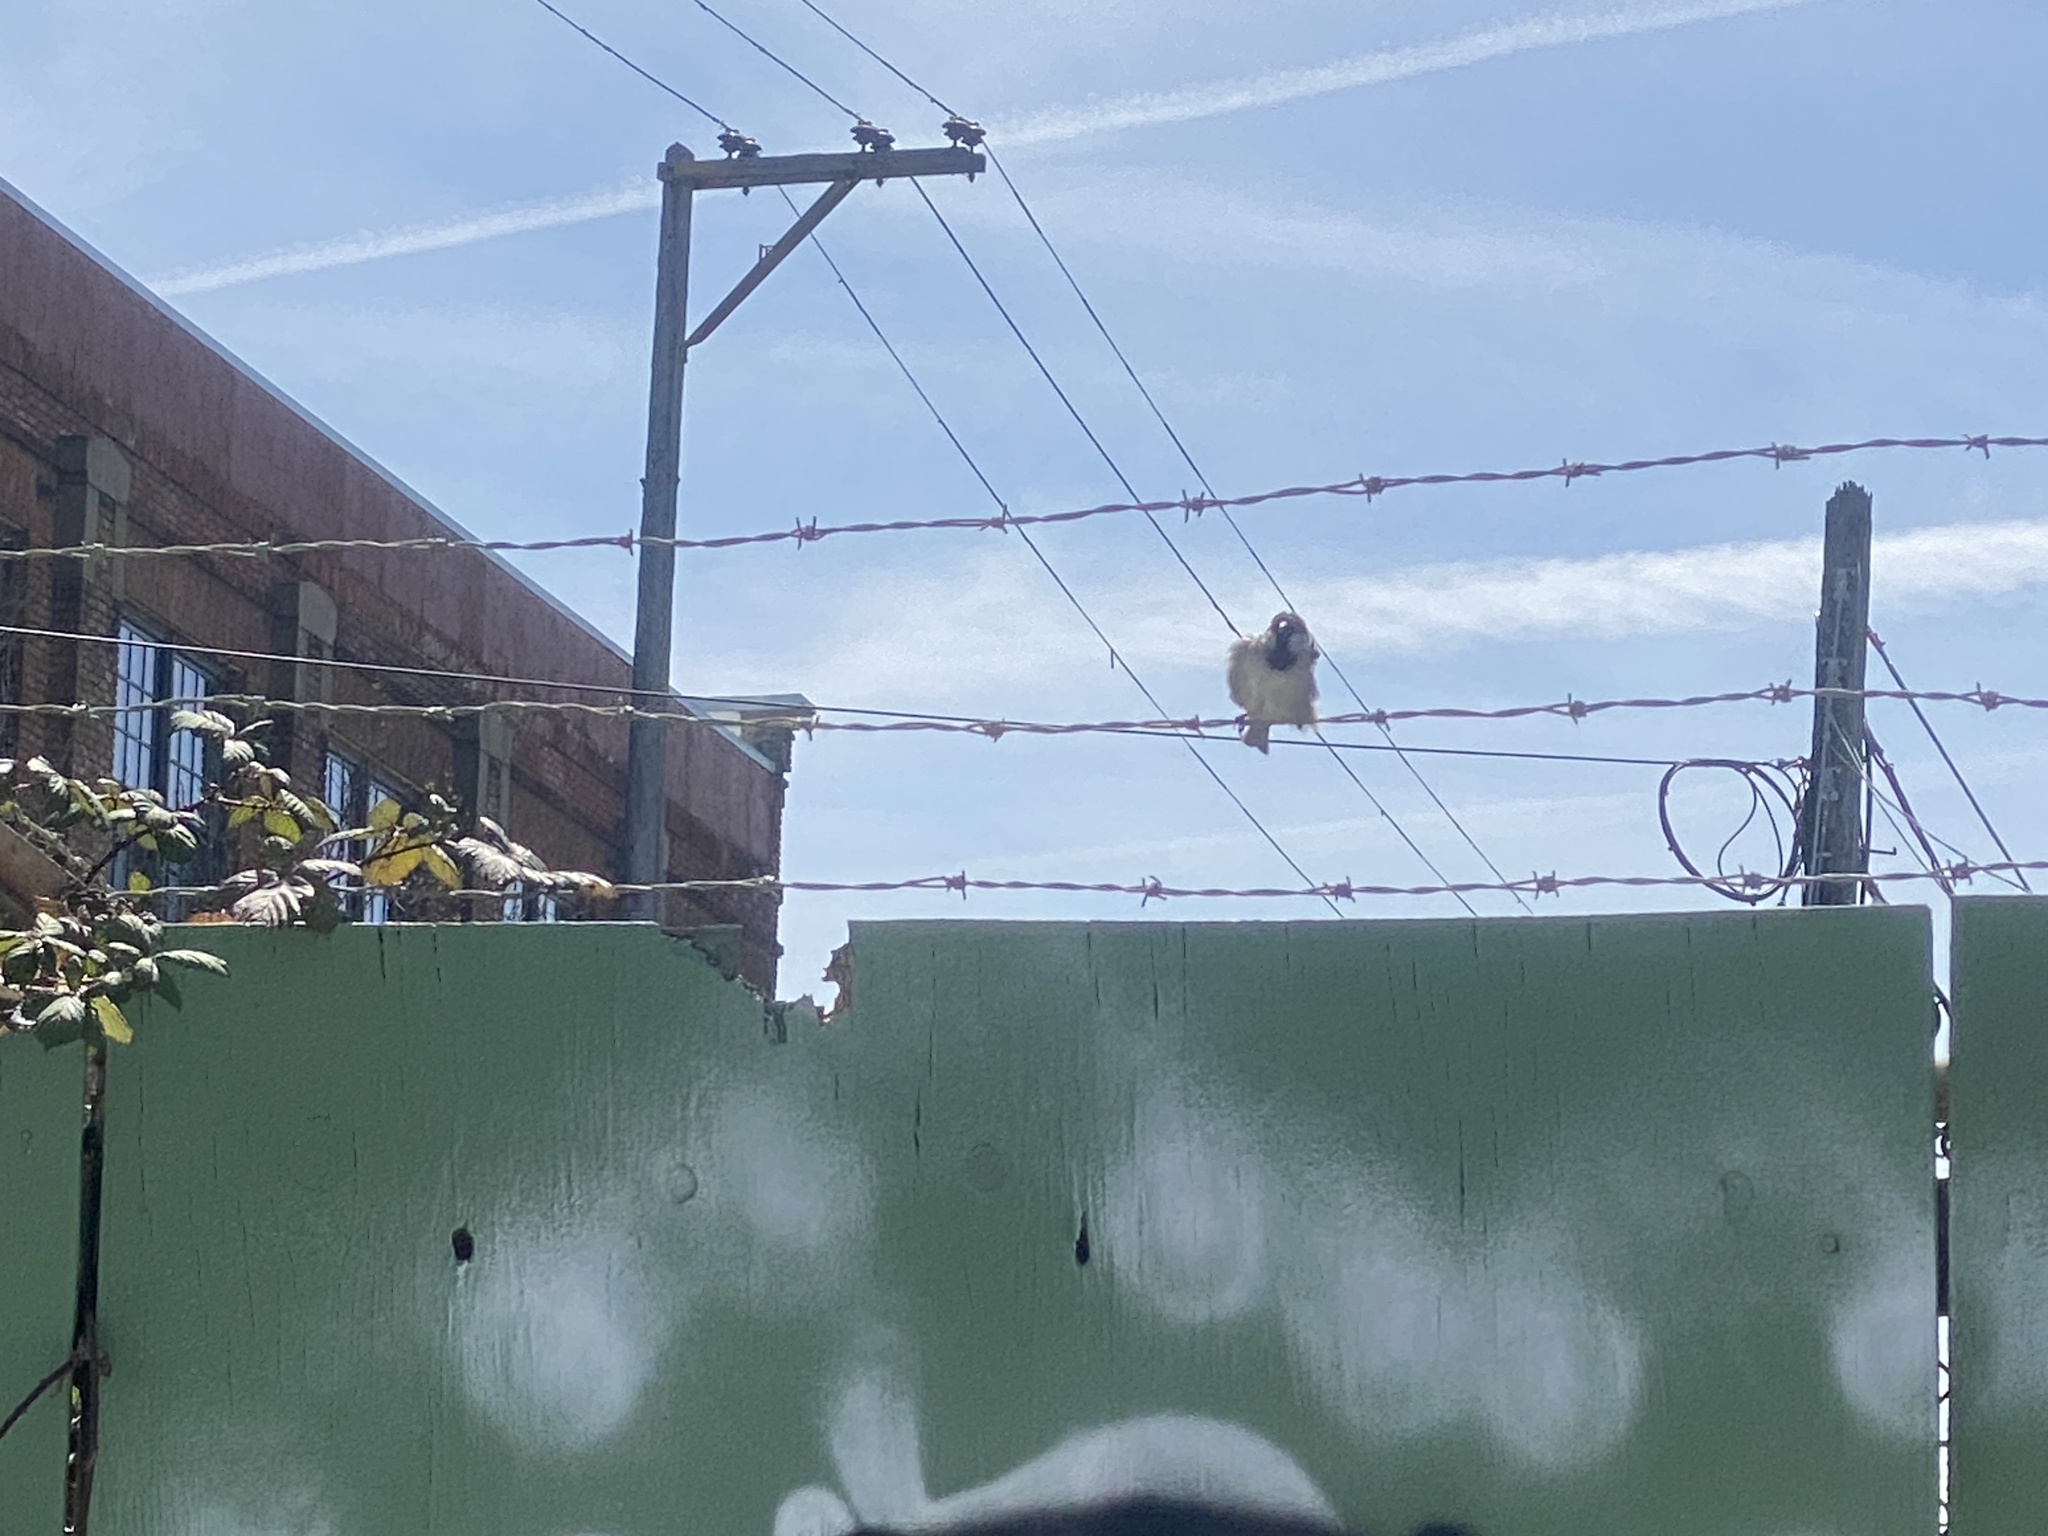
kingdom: Animalia
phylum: Chordata
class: Aves
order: Passeriformes
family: Passeridae
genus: Passer
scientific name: Passer domesticus
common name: House sparrow
